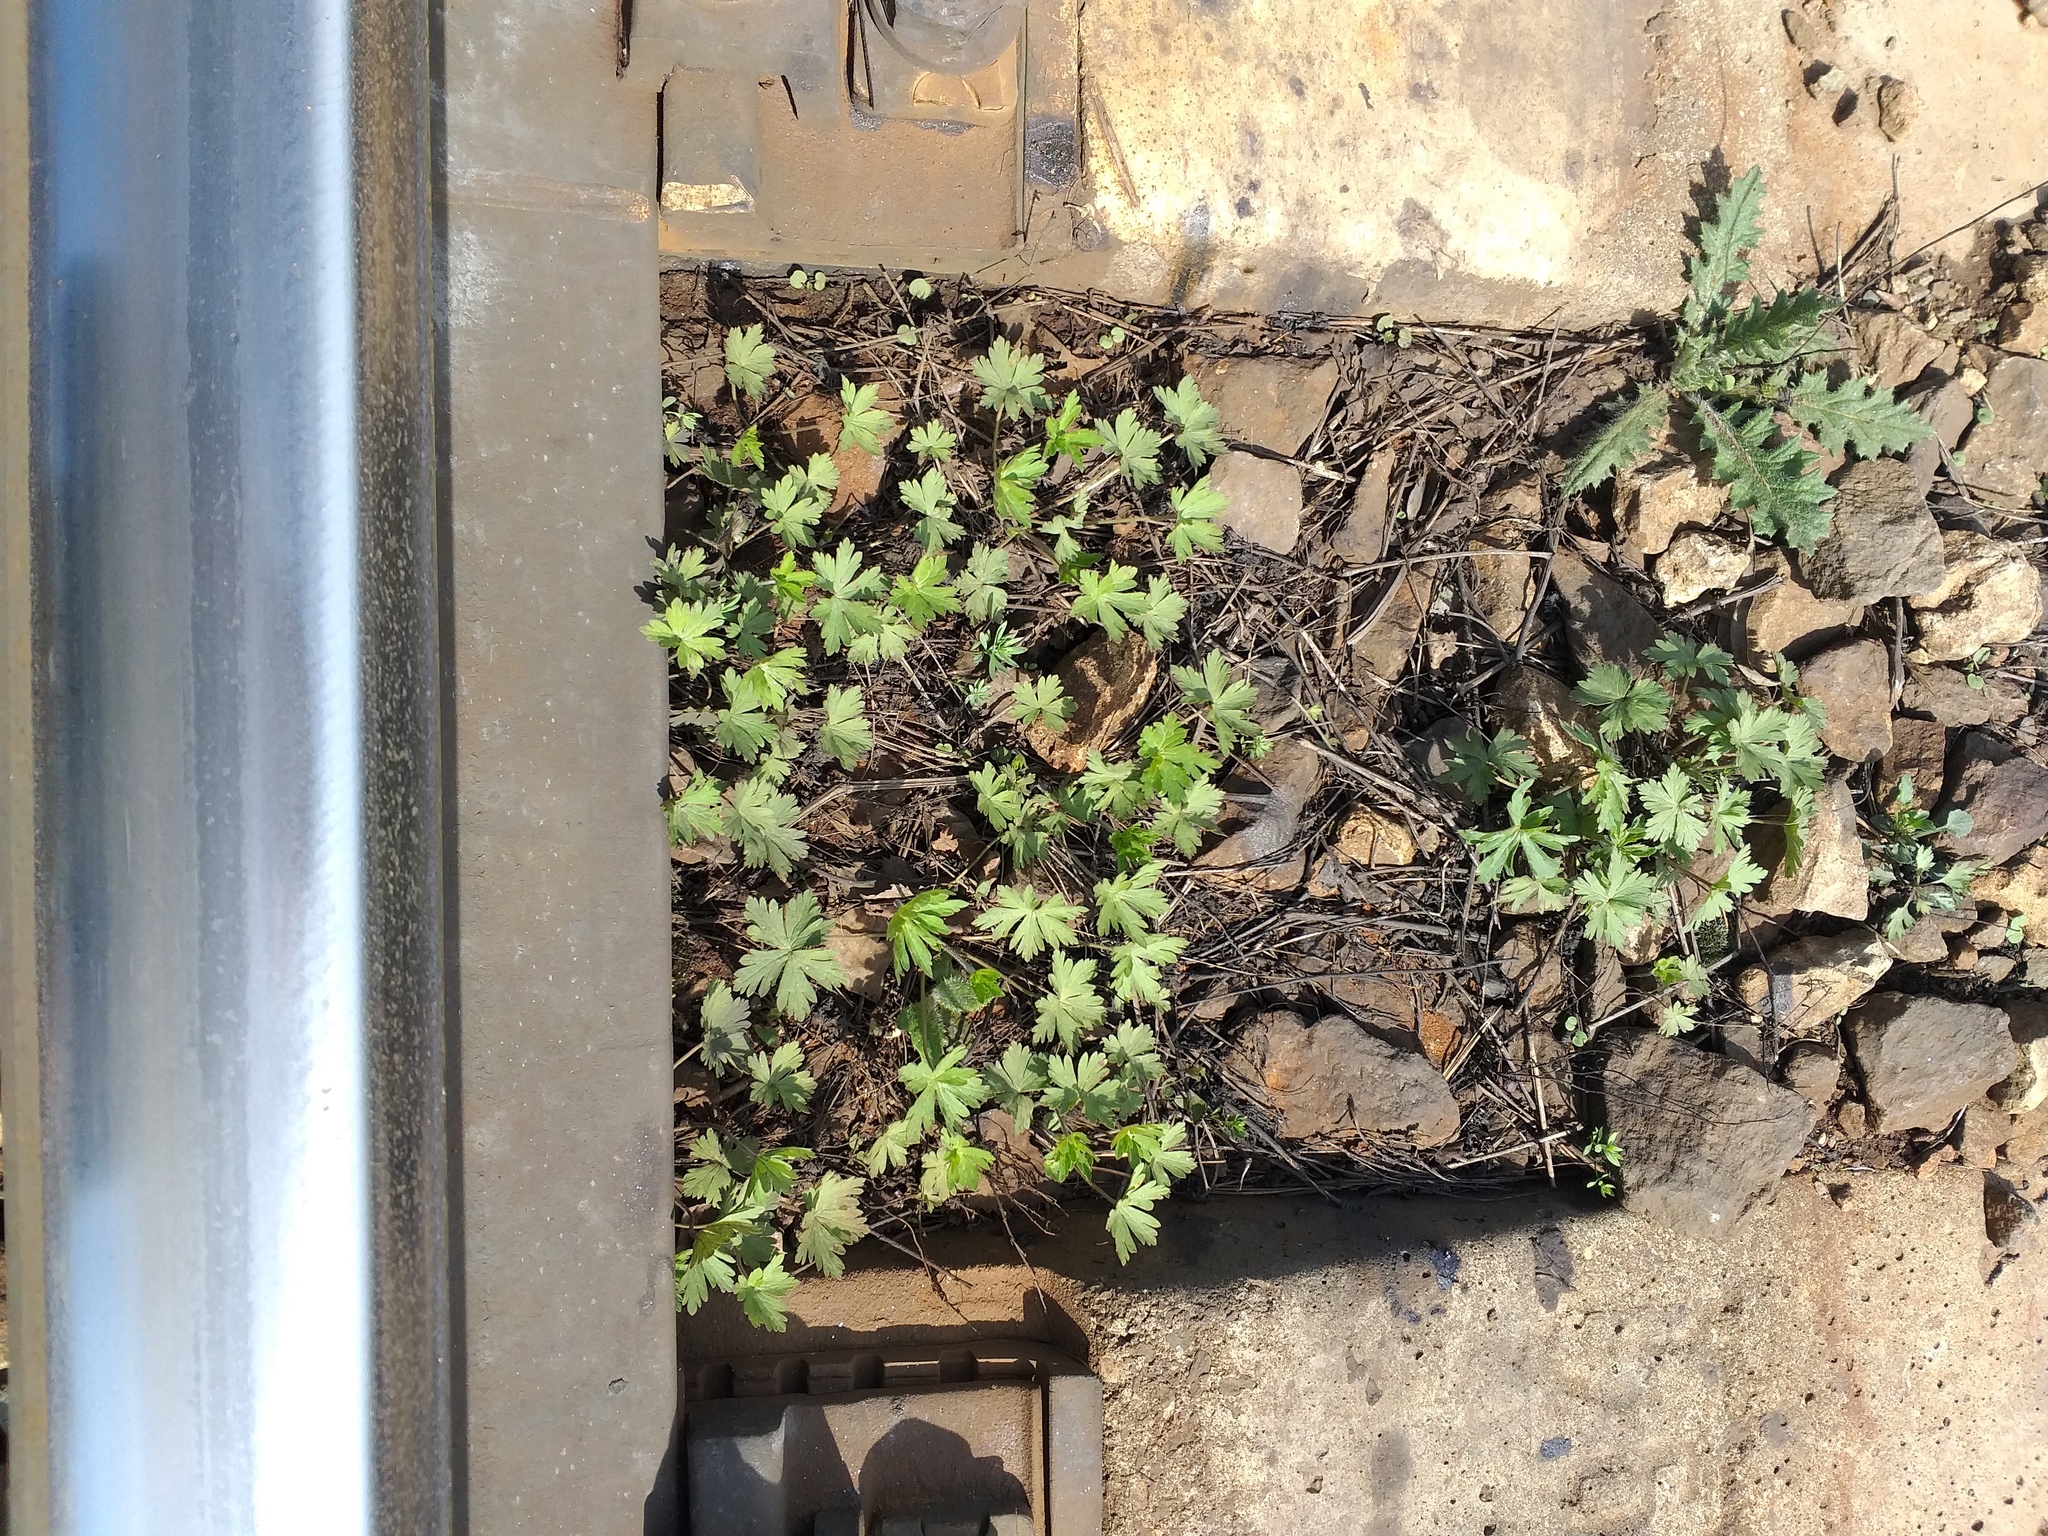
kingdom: Plantae
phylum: Tracheophyta
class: Magnoliopsida
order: Geraniales
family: Geraniaceae
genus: Geranium
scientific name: Geranium sibiricum
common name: Siberian crane's-bill
